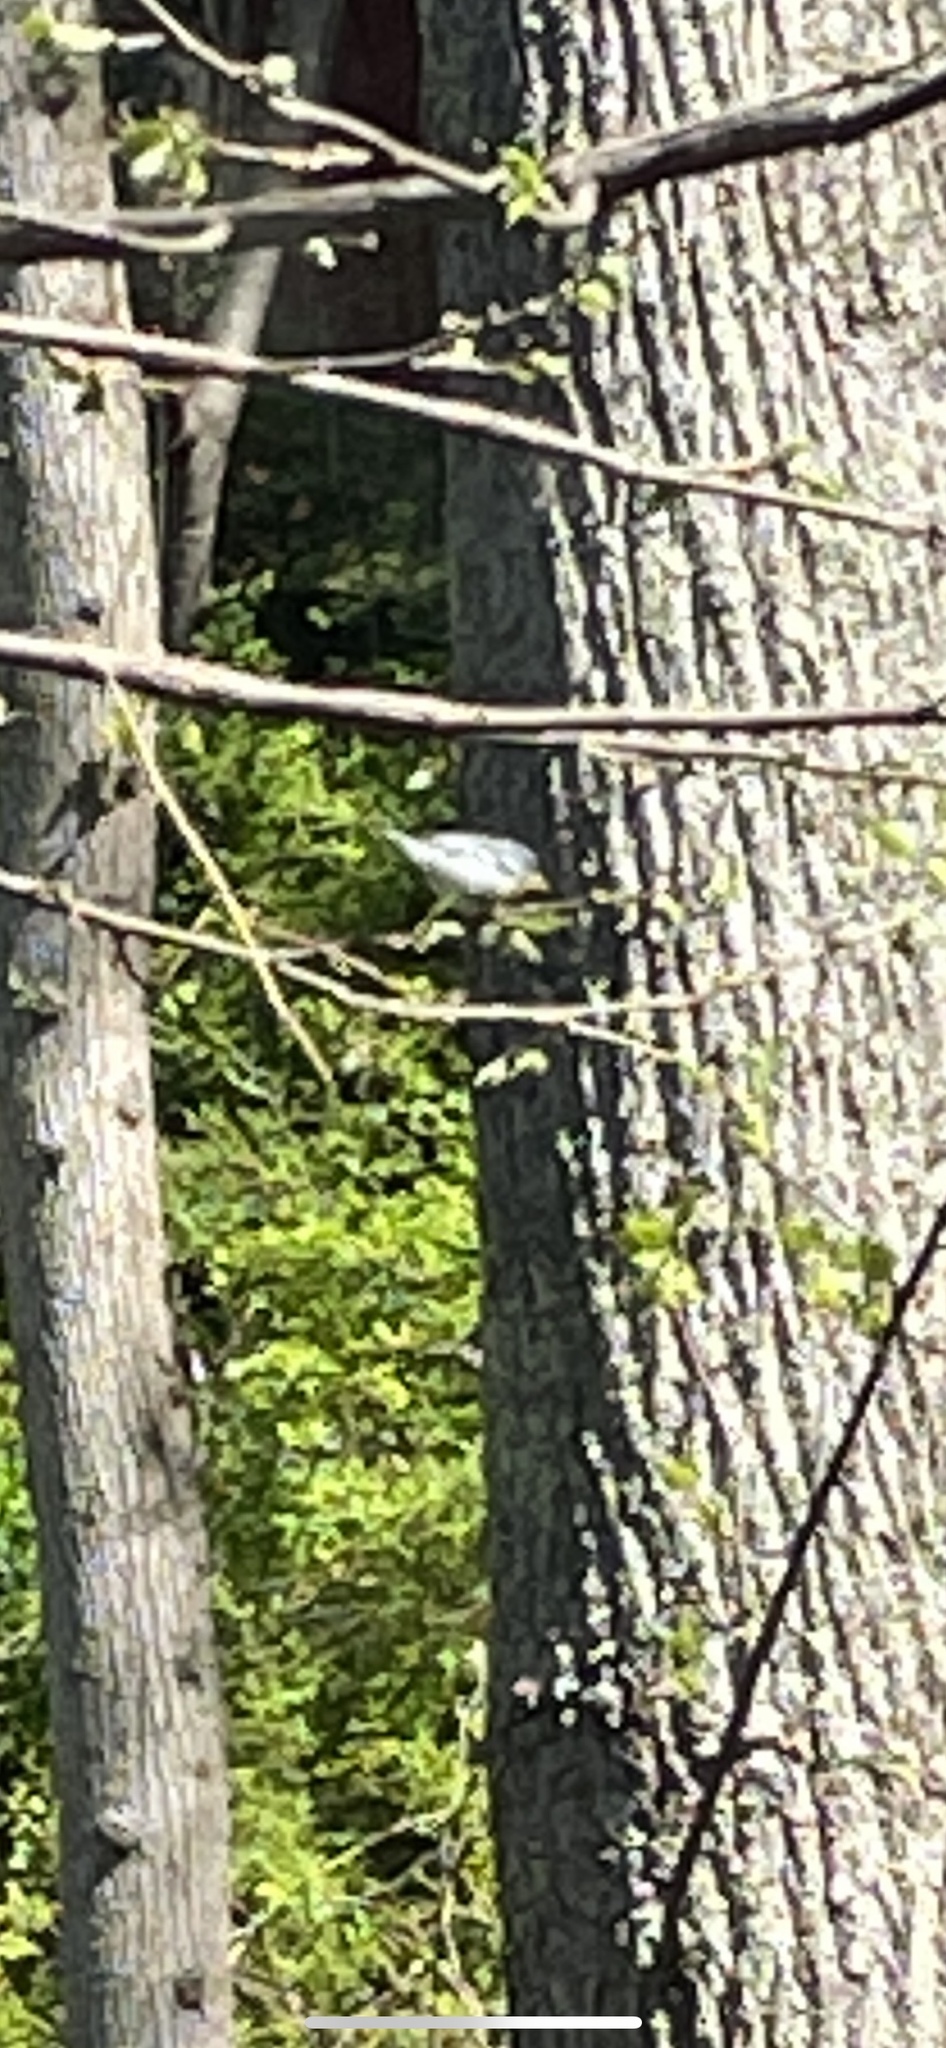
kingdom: Animalia
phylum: Chordata
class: Aves
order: Passeriformes
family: Parulidae
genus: Setophaga
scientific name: Setophaga americana
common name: Northern parula
